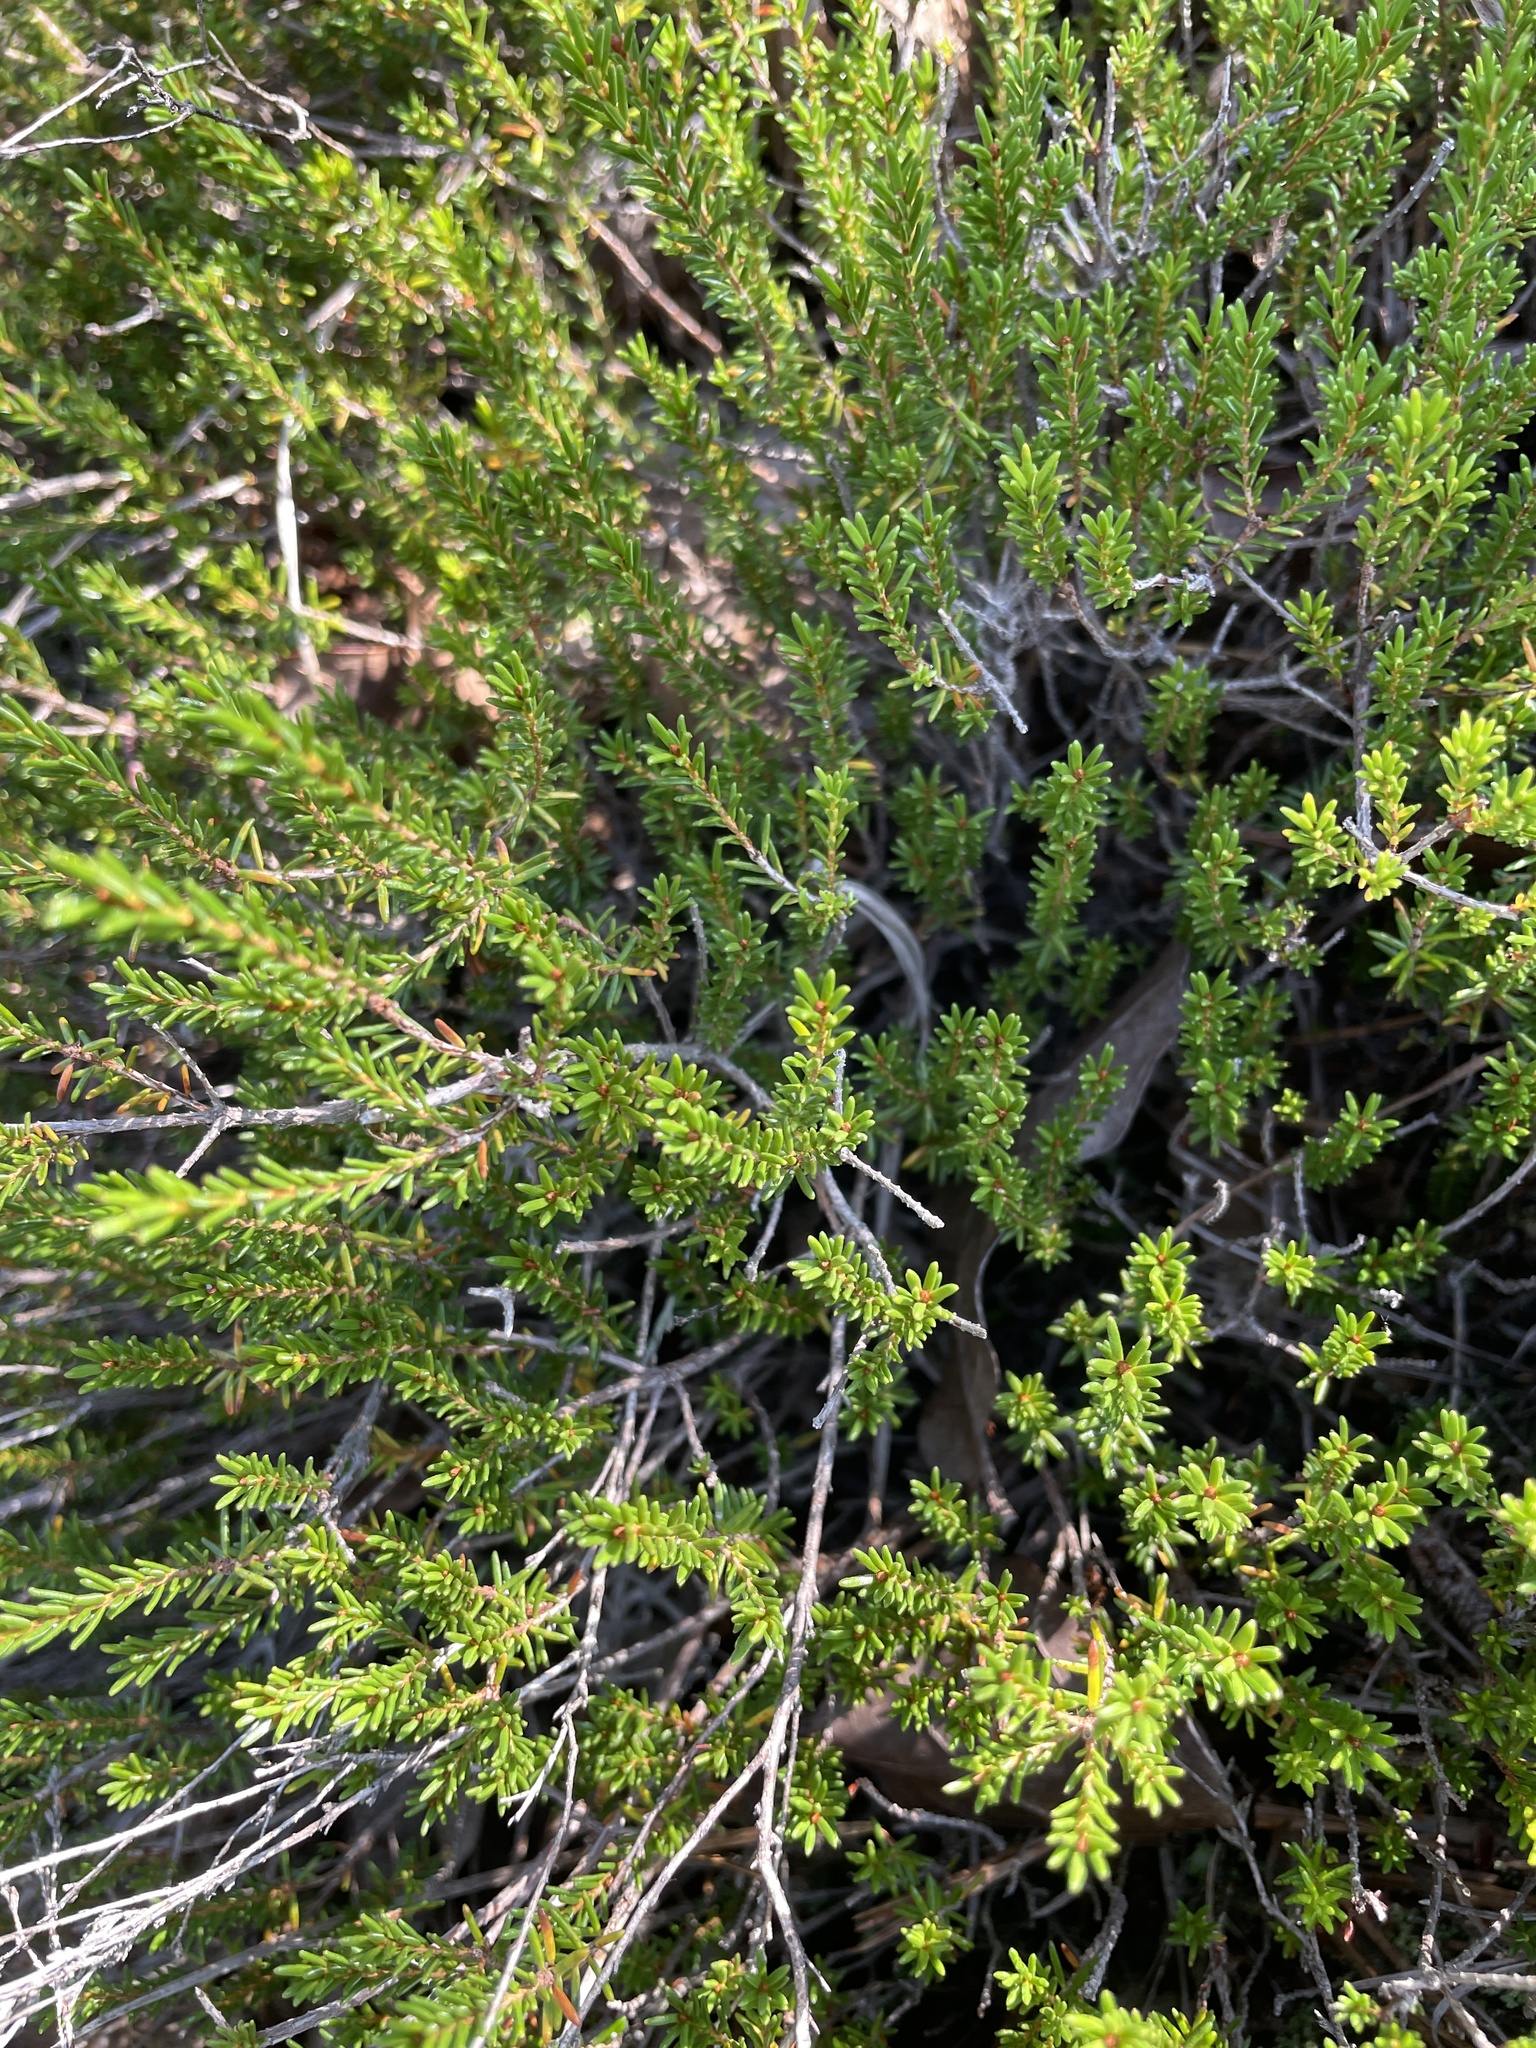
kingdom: Plantae
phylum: Tracheophyta
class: Magnoliopsida
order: Ericales
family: Ericaceae
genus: Corema
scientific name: Corema conradii
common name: Broom-crowberry
